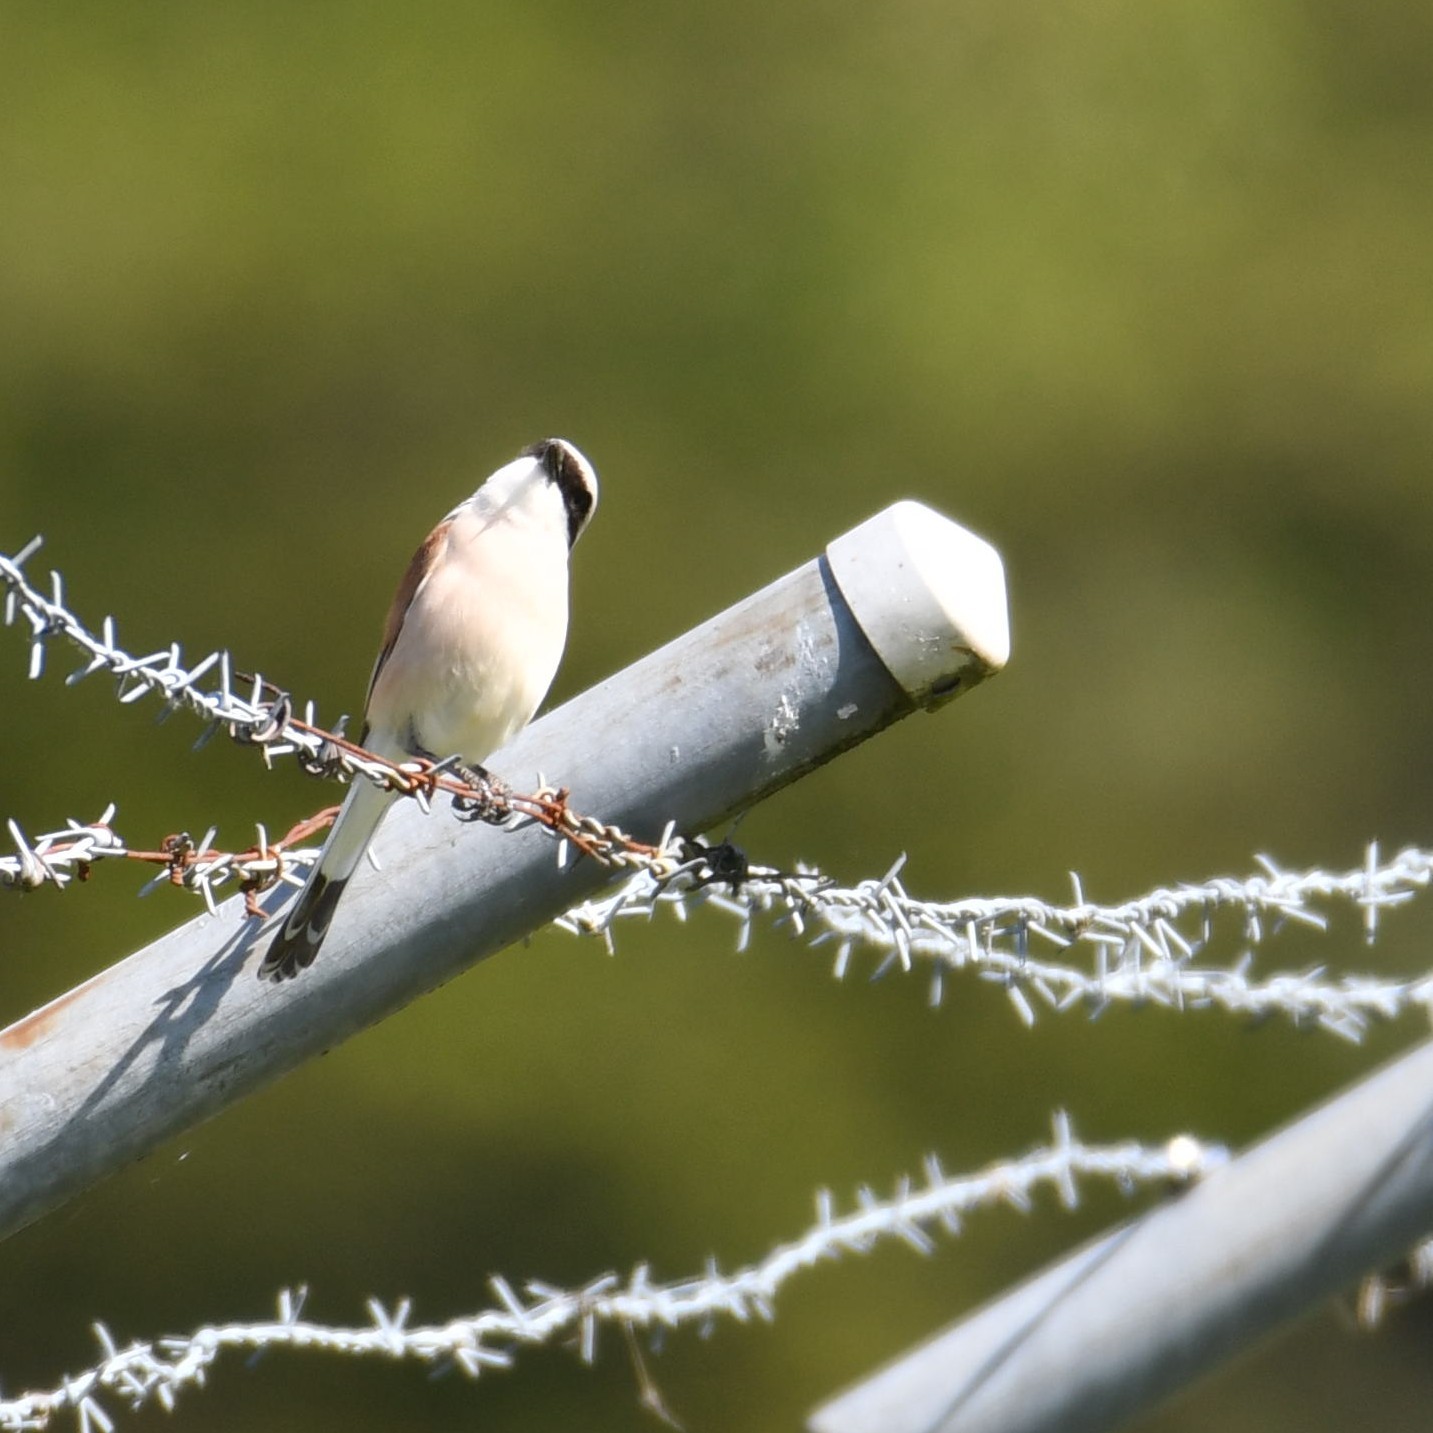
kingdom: Animalia
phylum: Chordata
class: Aves
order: Passeriformes
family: Laniidae
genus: Lanius
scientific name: Lanius collurio
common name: Red-backed shrike
